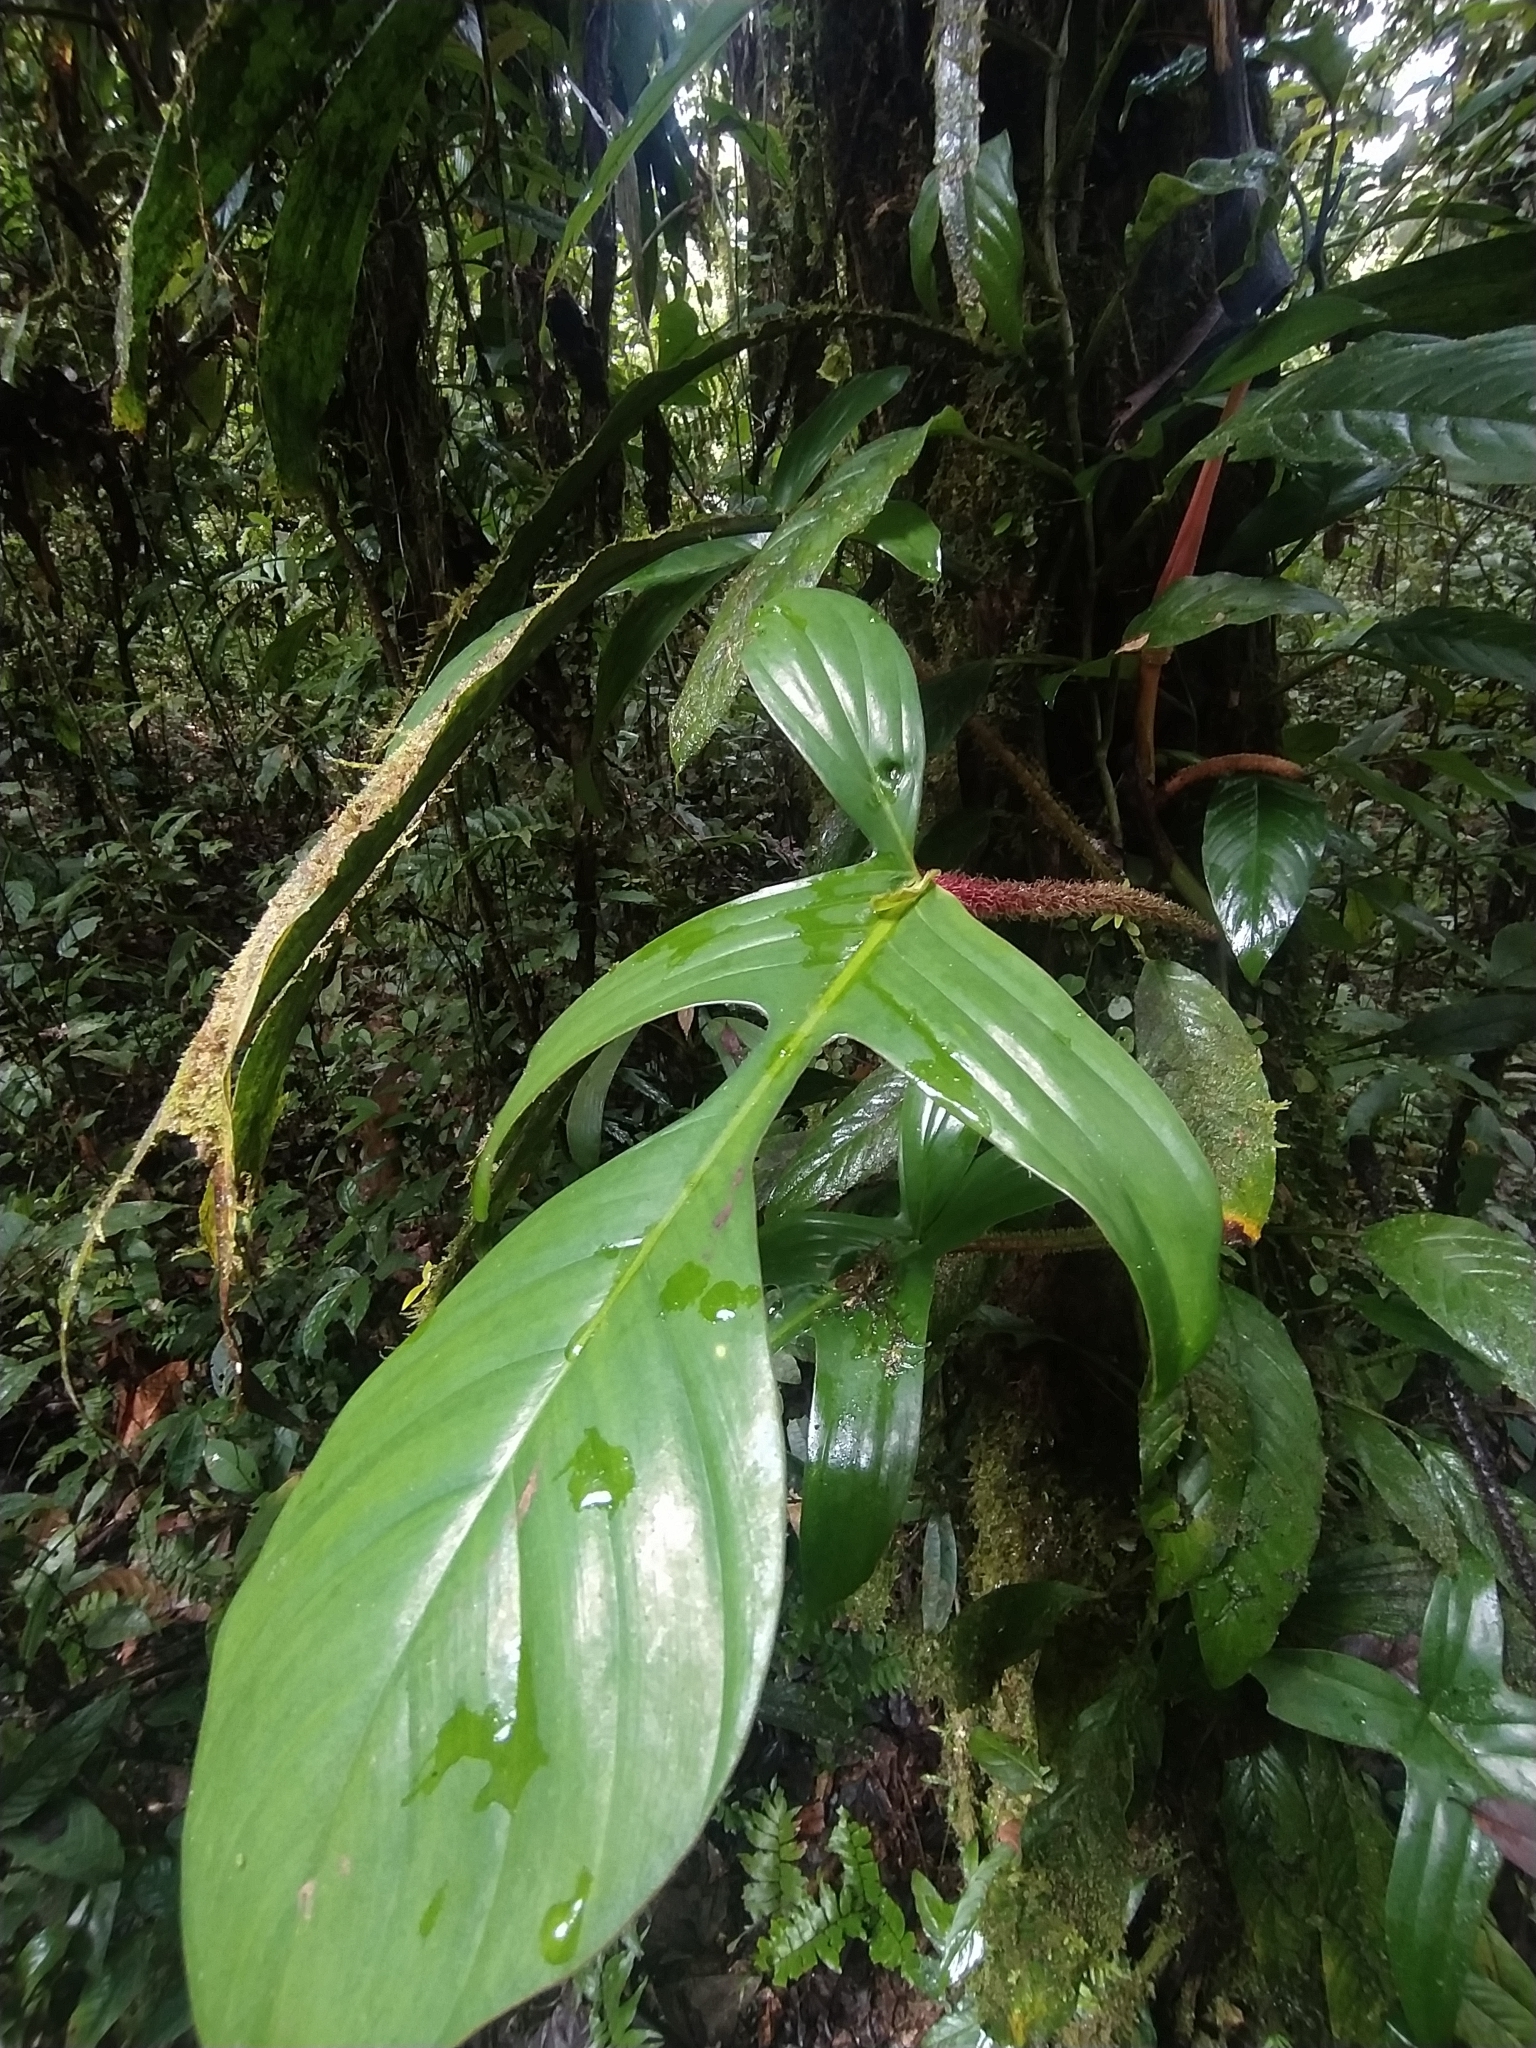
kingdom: Plantae
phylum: Tracheophyta
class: Liliopsida
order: Alismatales
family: Araceae
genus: Philodendron
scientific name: Philodendron squamiferum
